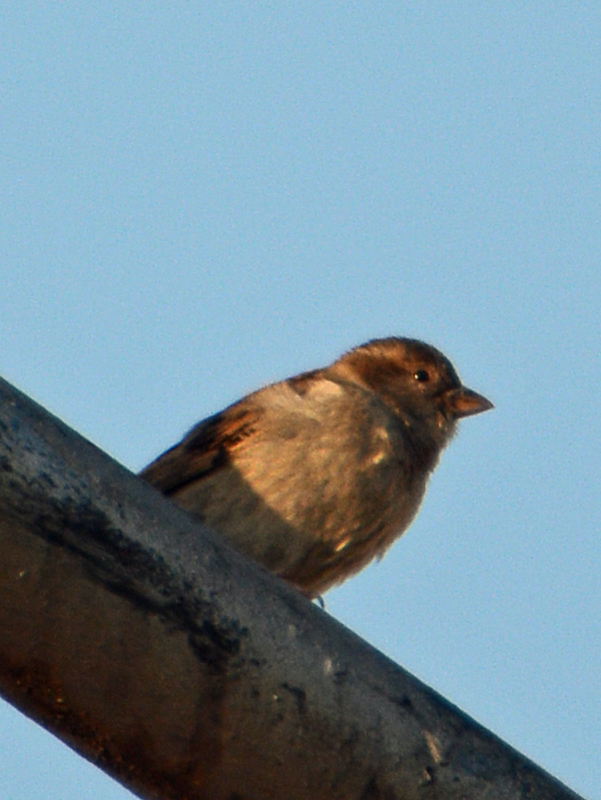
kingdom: Animalia
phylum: Chordata
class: Aves
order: Passeriformes
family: Passeridae
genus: Passer
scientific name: Passer domesticus
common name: House sparrow
